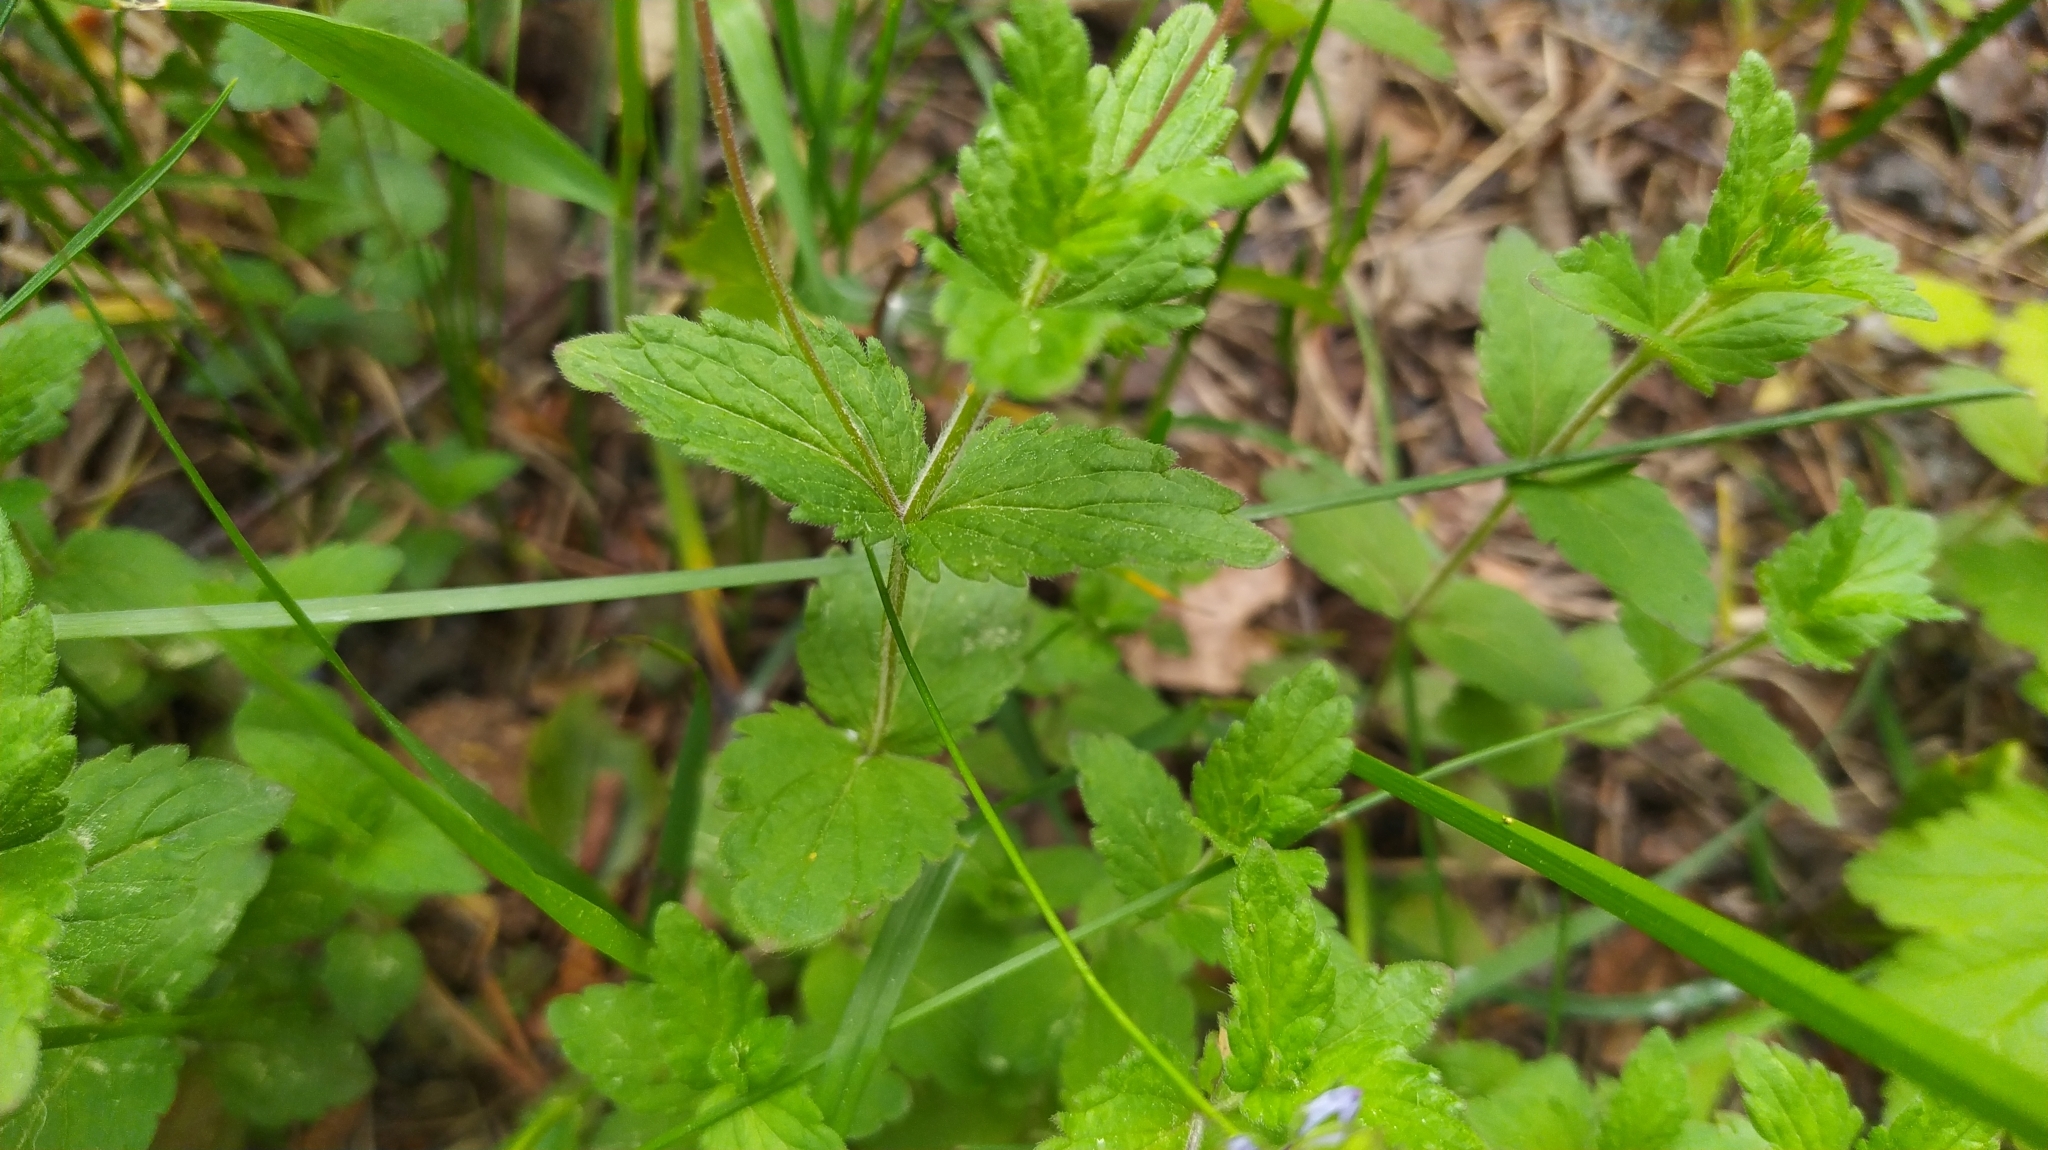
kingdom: Plantae
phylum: Tracheophyta
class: Magnoliopsida
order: Lamiales
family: Plantaginaceae
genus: Veronica
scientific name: Veronica chamaedrys
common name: Germander speedwell
